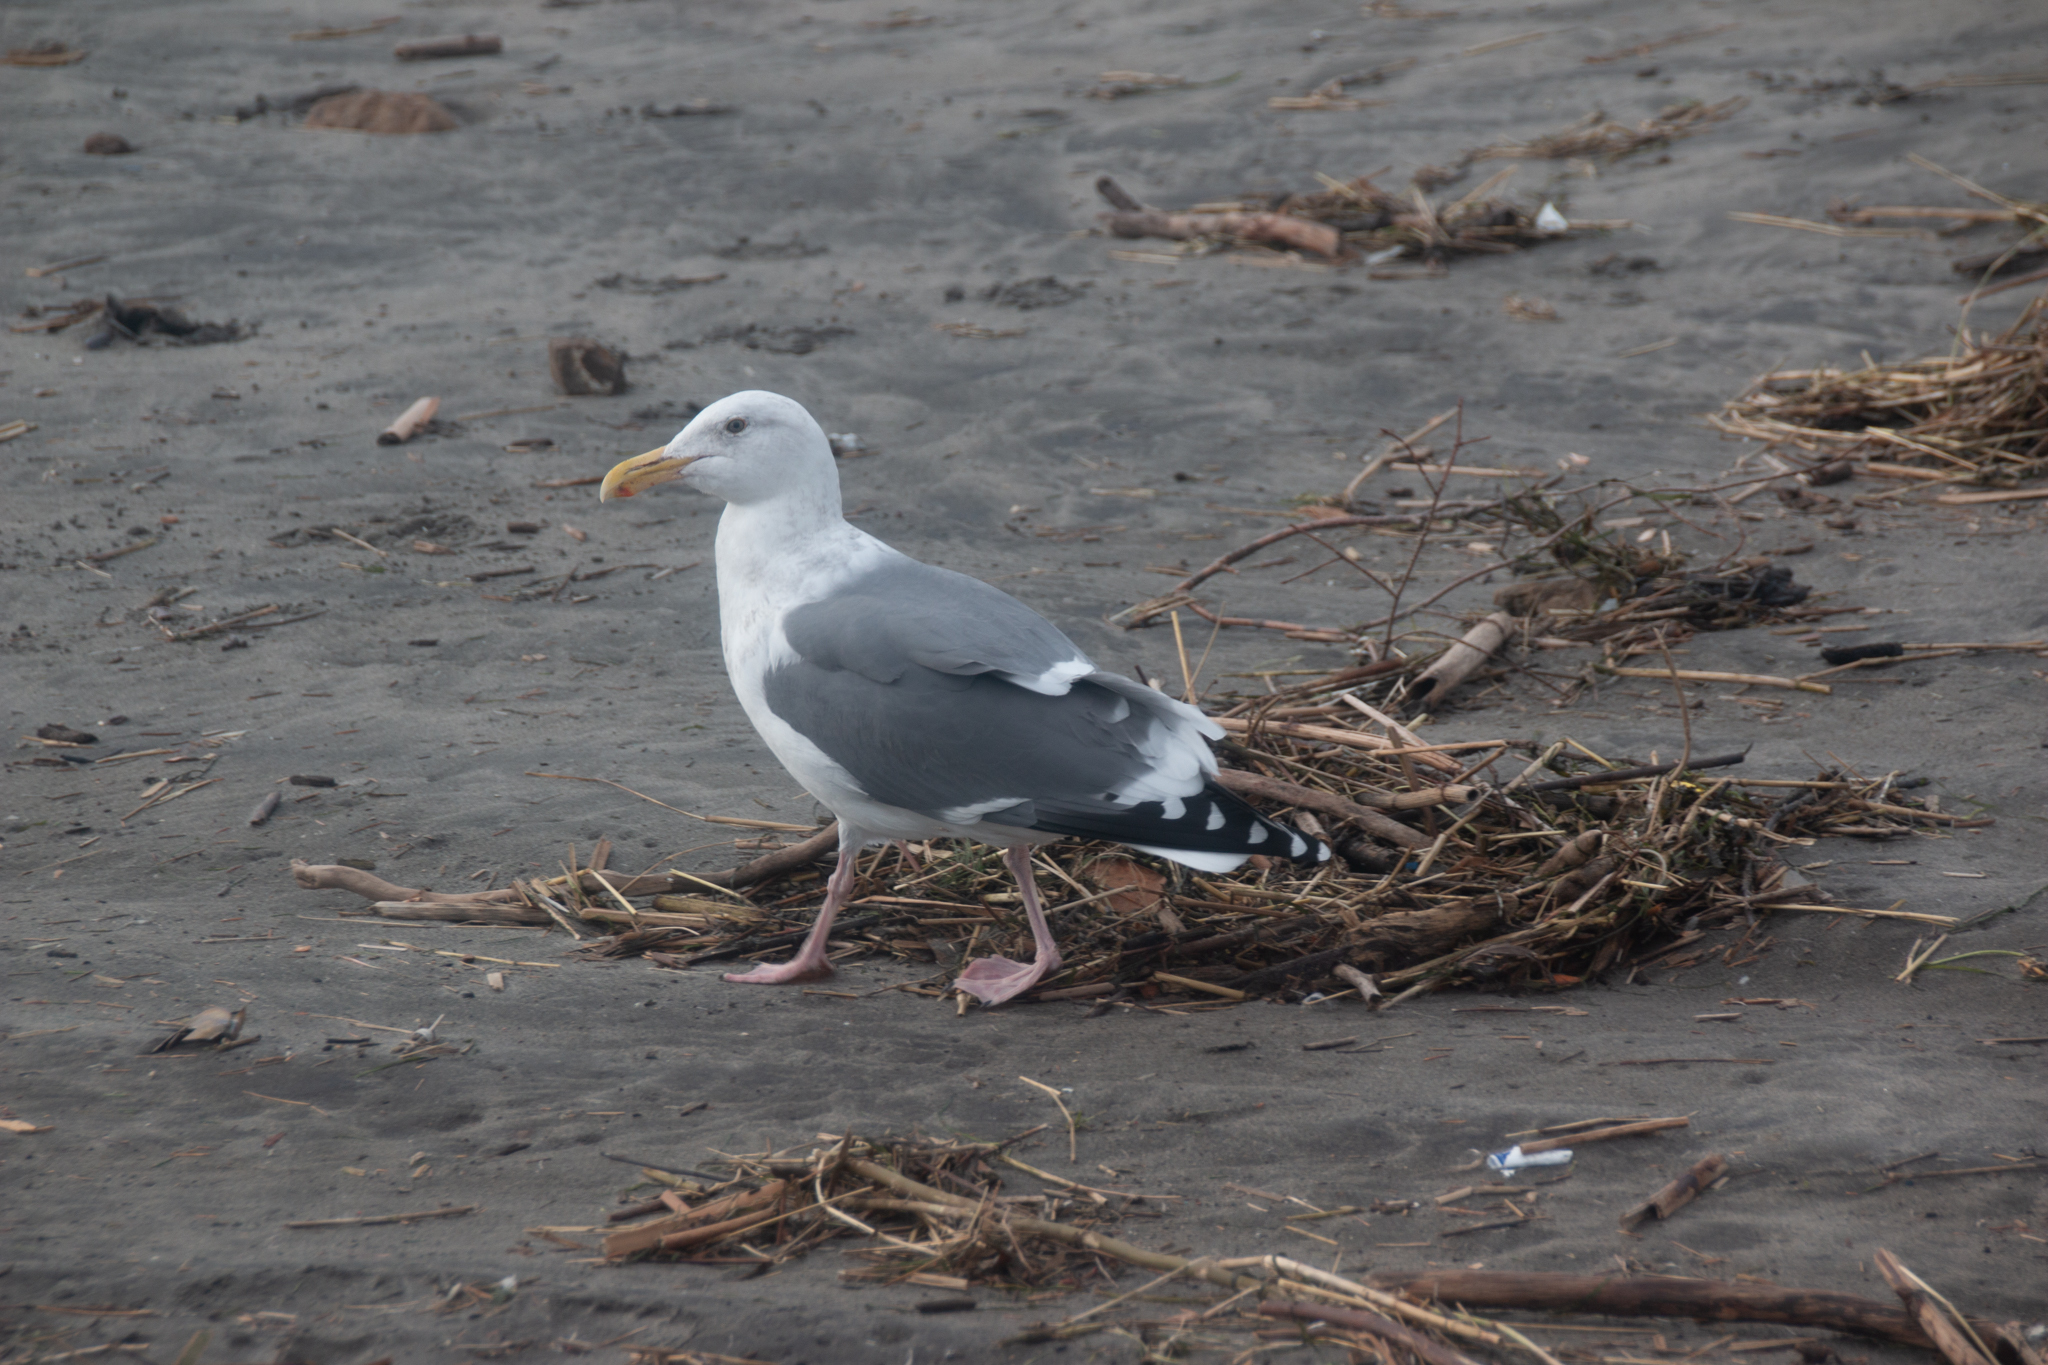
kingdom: Animalia
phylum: Chordata
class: Aves
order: Charadriiformes
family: Laridae
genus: Larus
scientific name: Larus occidentalis
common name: Western gull
